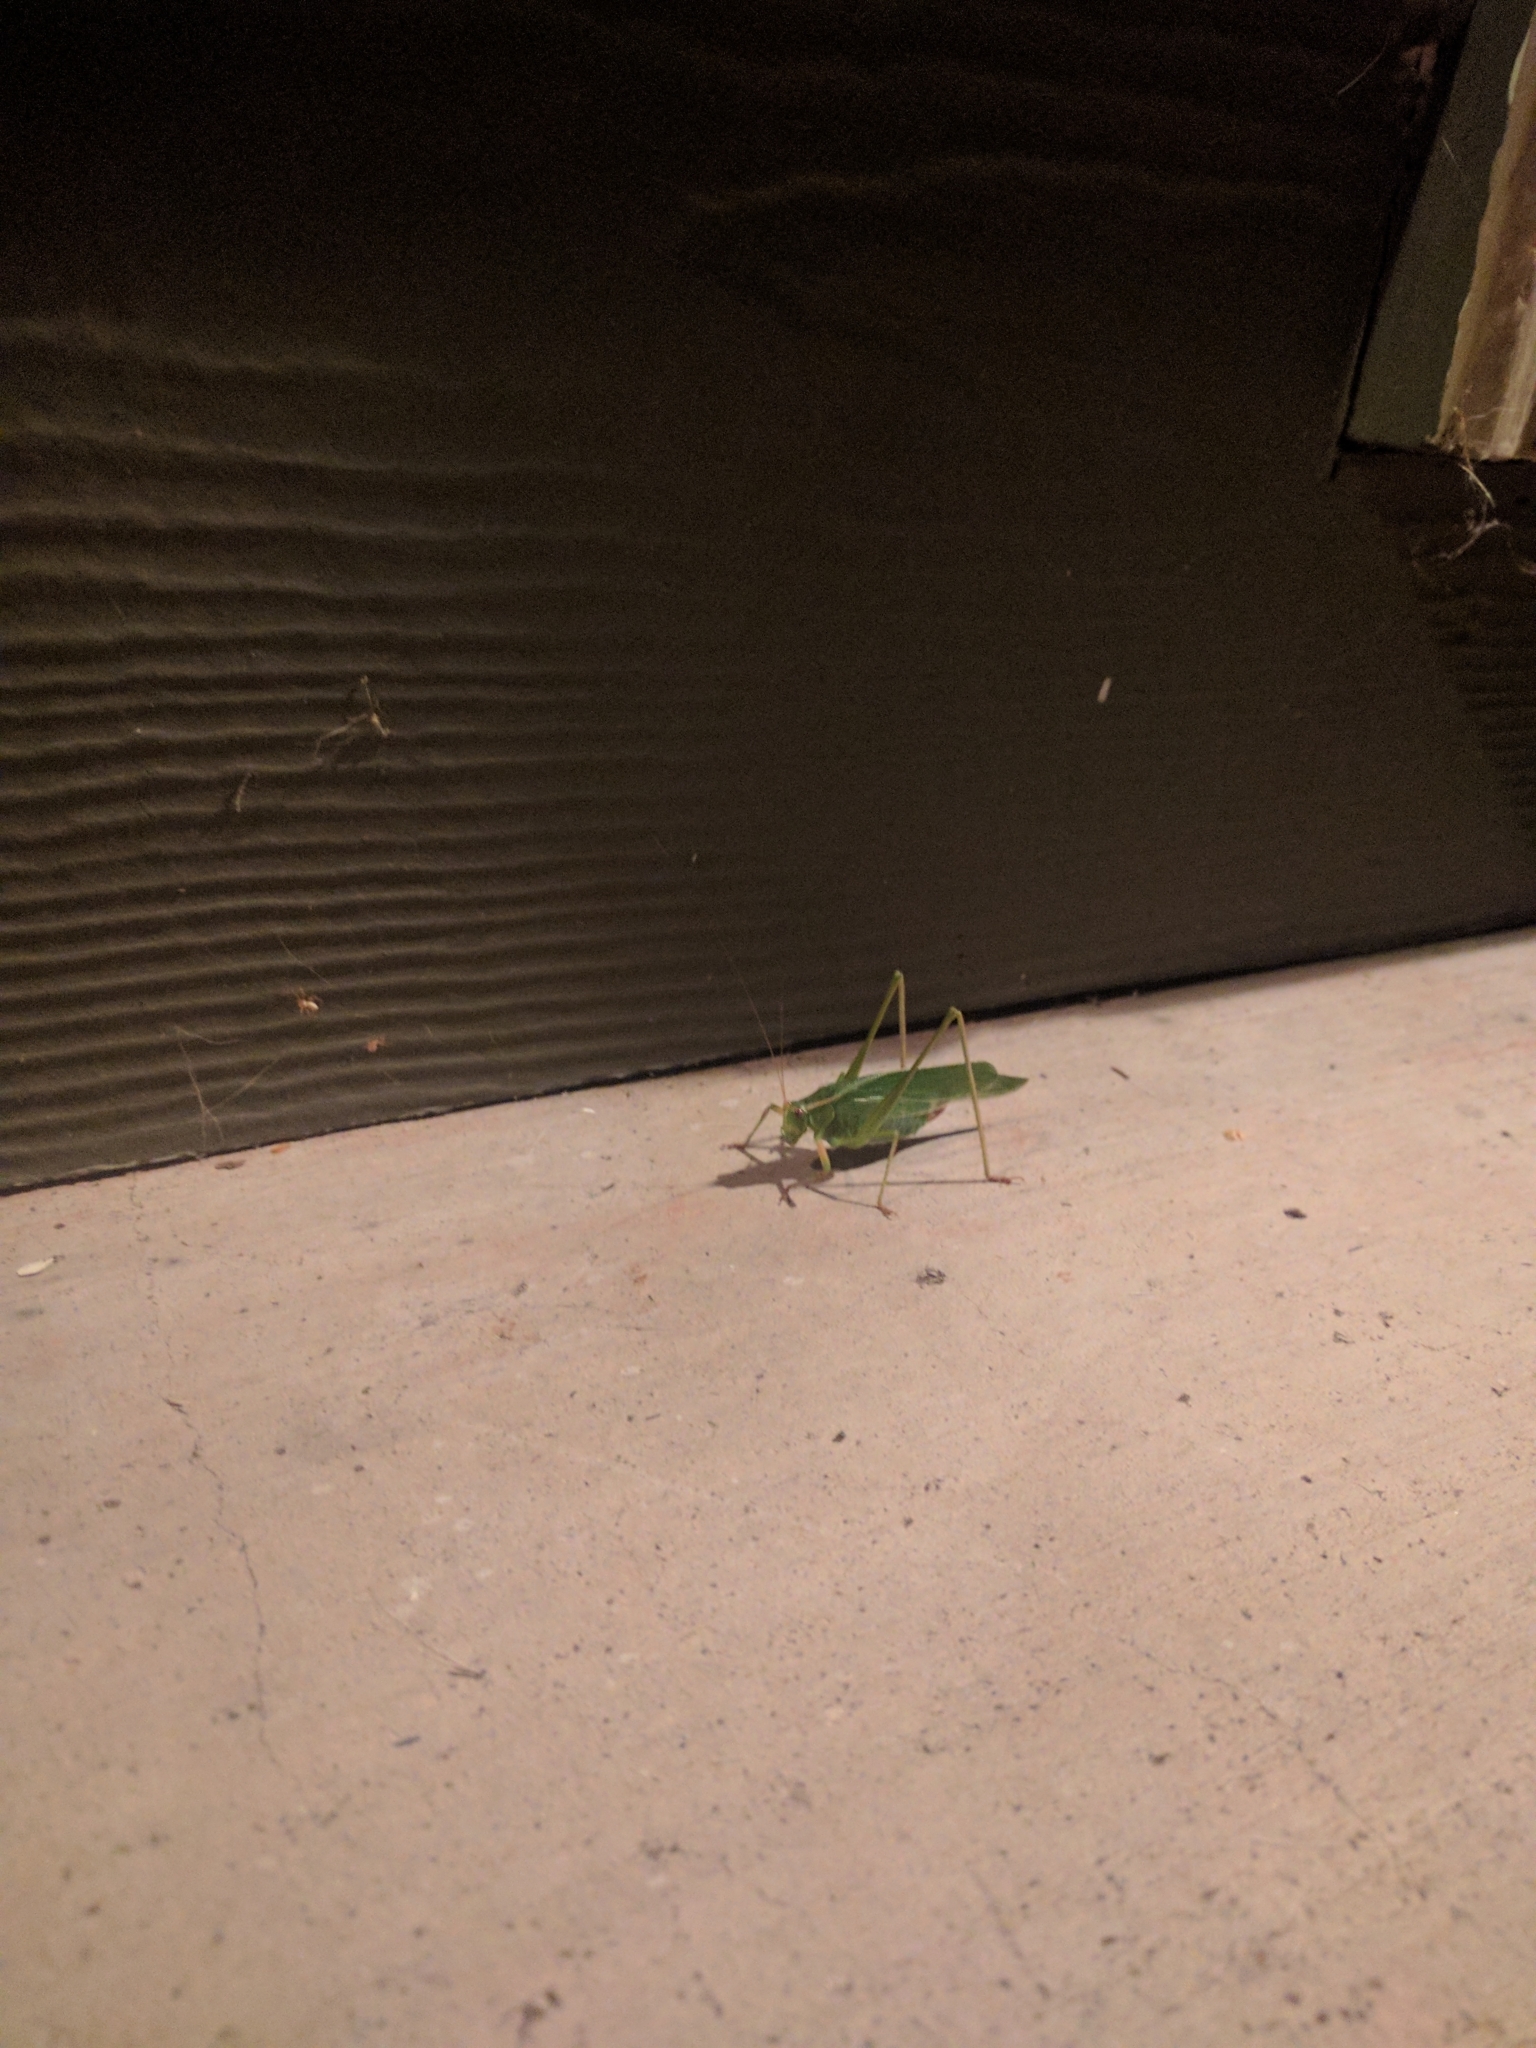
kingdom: Animalia
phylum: Arthropoda
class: Insecta
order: Orthoptera
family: Tettigoniidae
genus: Scudderia
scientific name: Scudderia furcata
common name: Fork-tailed bush katydid
